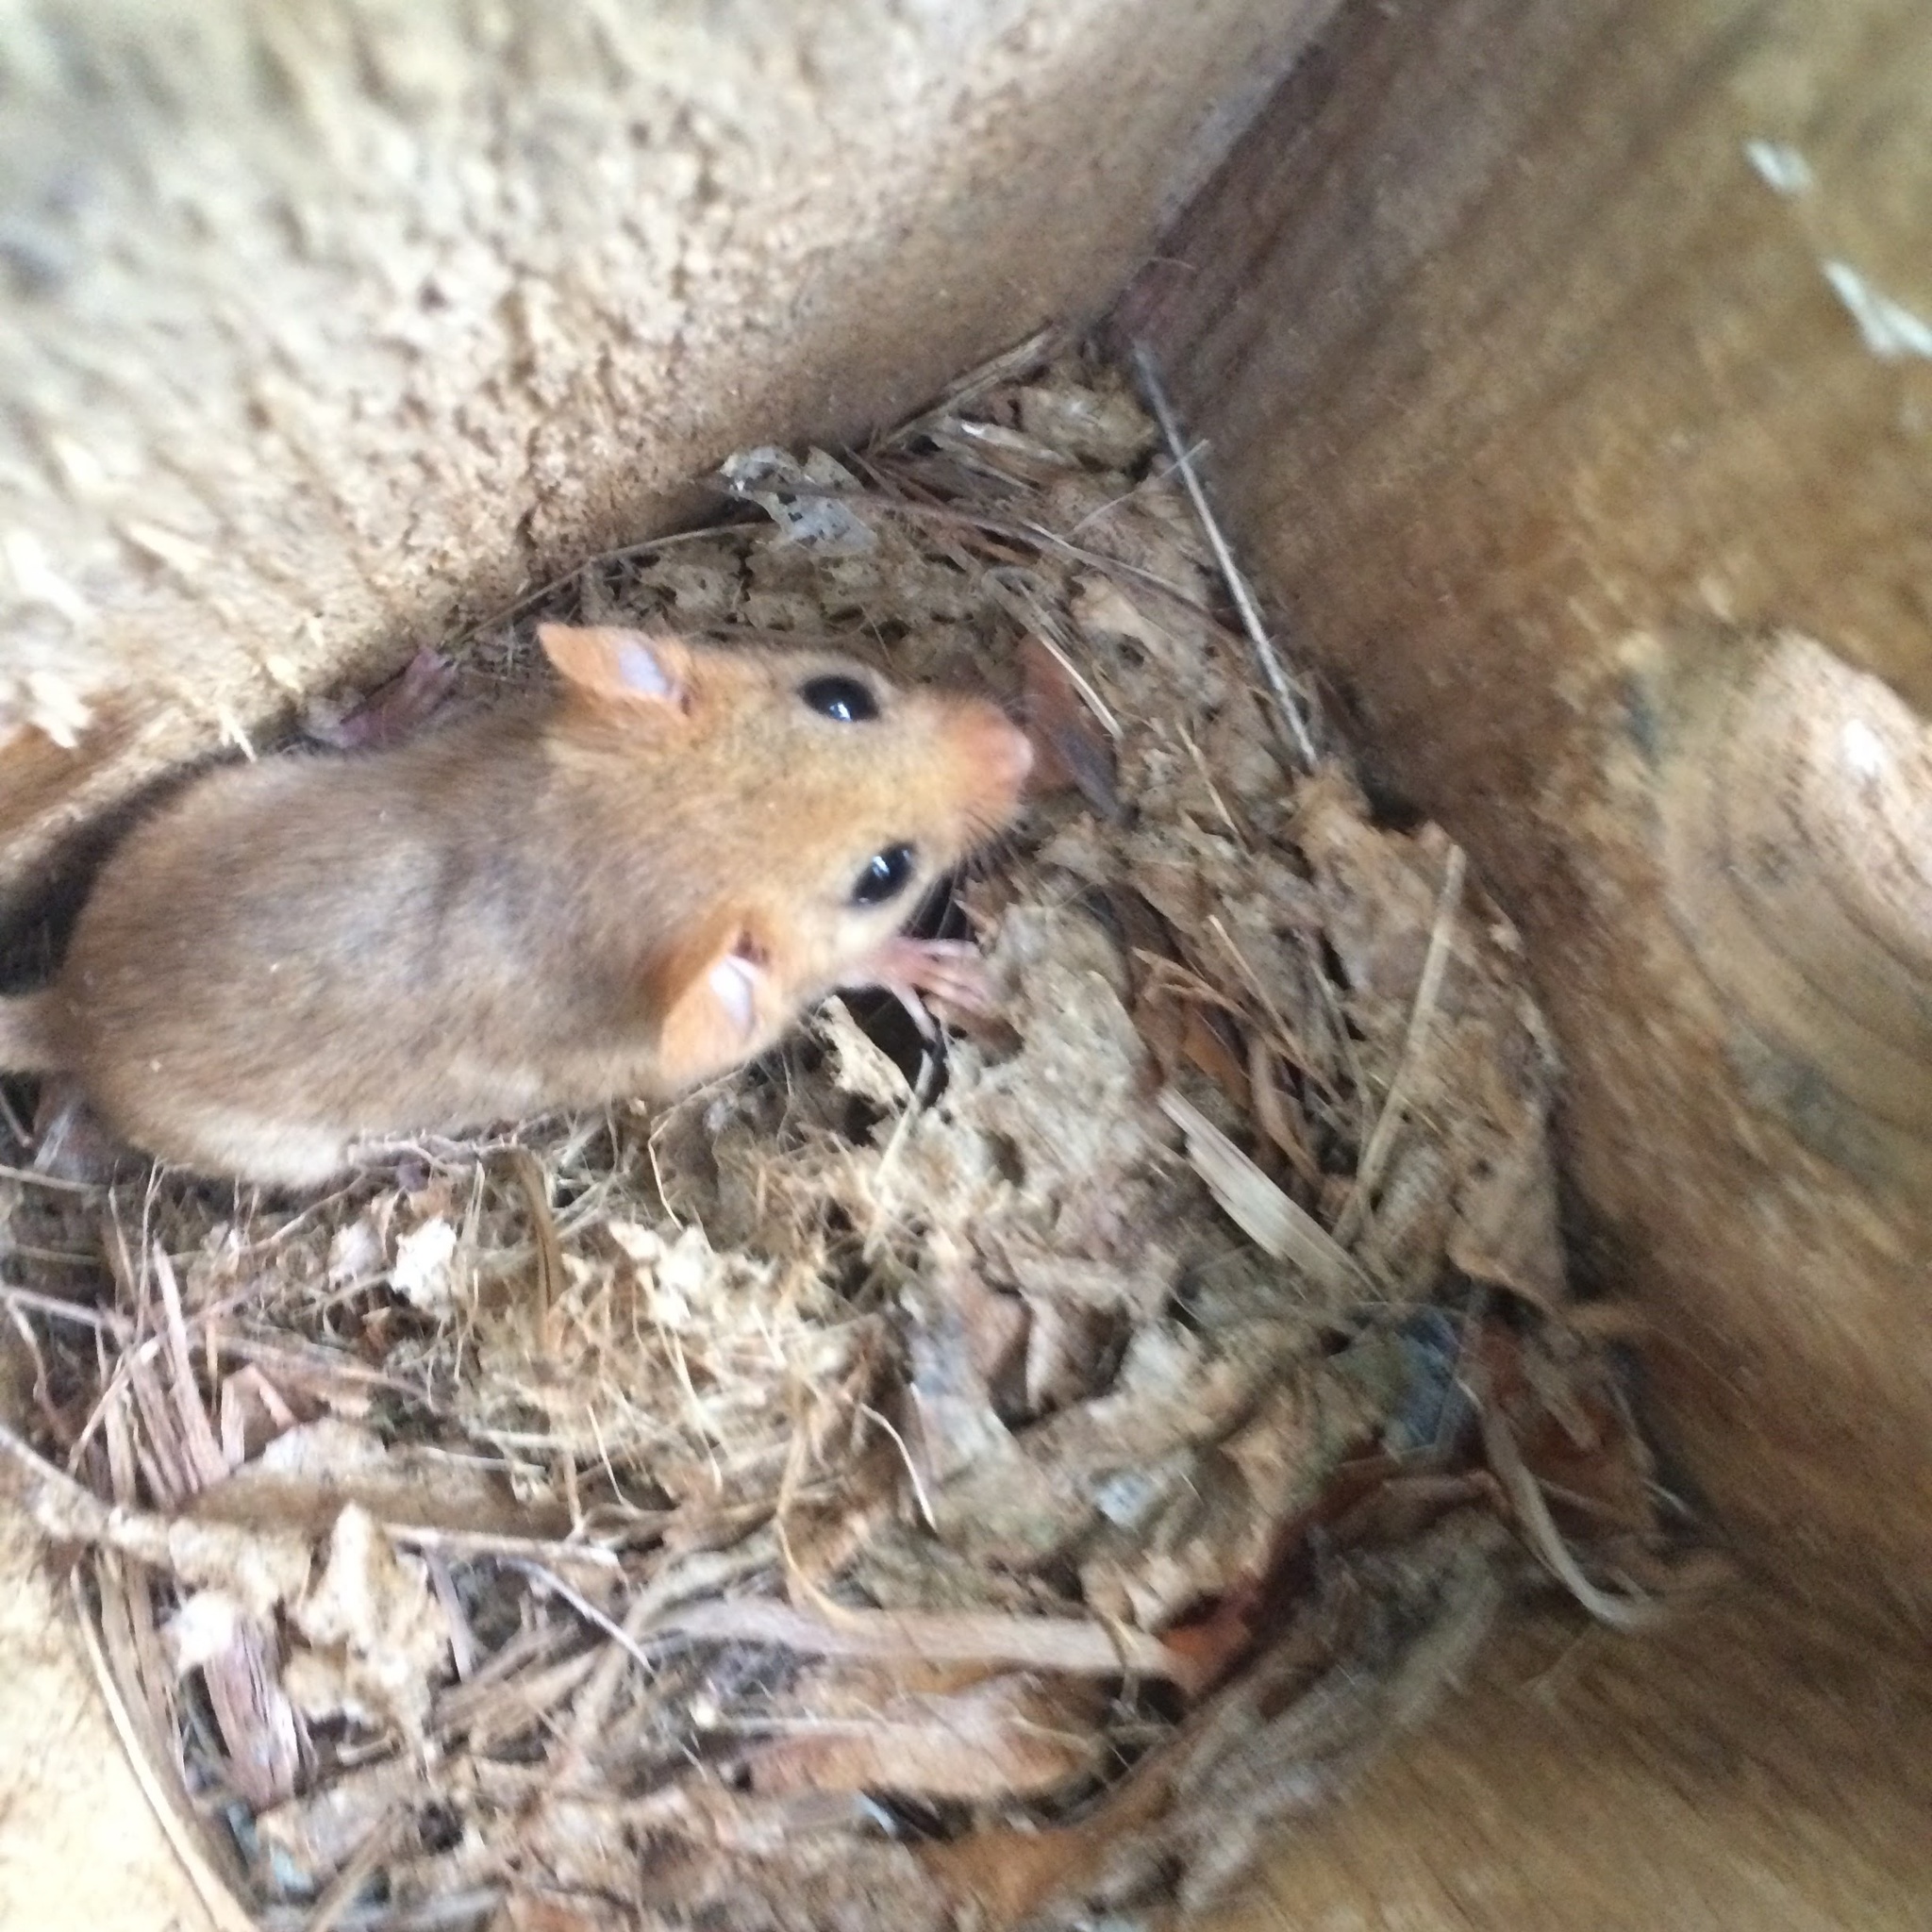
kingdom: Animalia
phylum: Chordata
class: Mammalia
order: Rodentia
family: Gliridae
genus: Muscardinus
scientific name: Muscardinus avellanarius
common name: Hazel dormouse
